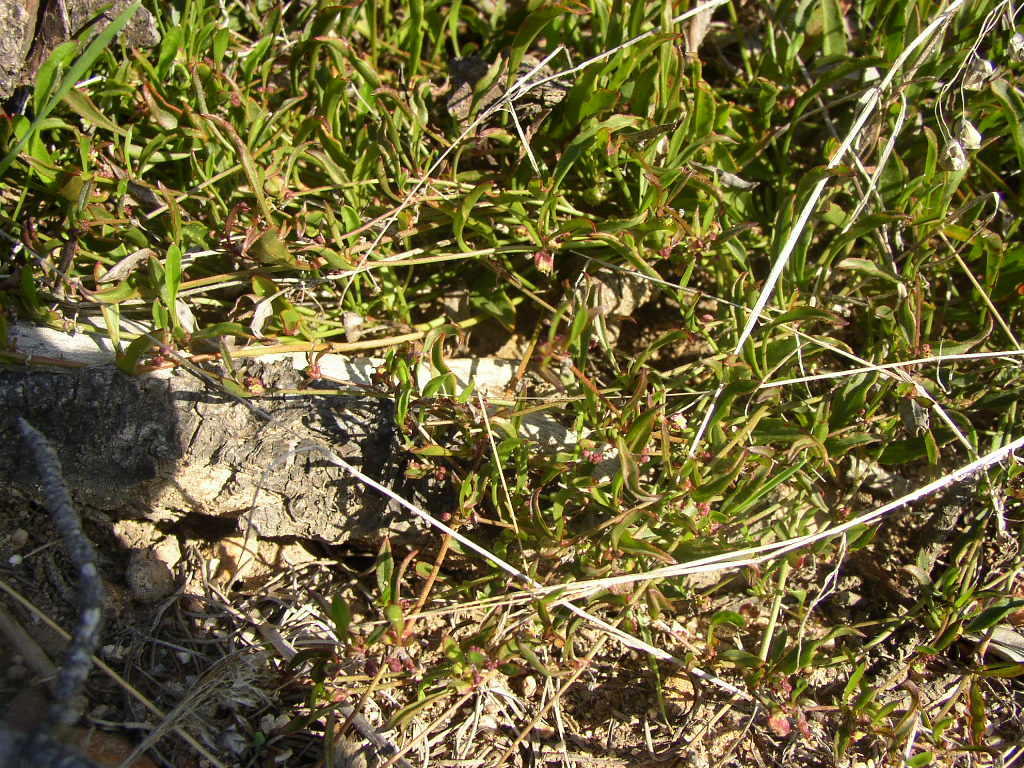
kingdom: Plantae
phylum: Tracheophyta
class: Magnoliopsida
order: Apiales
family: Apiaceae
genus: Centella
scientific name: Centella affinis
